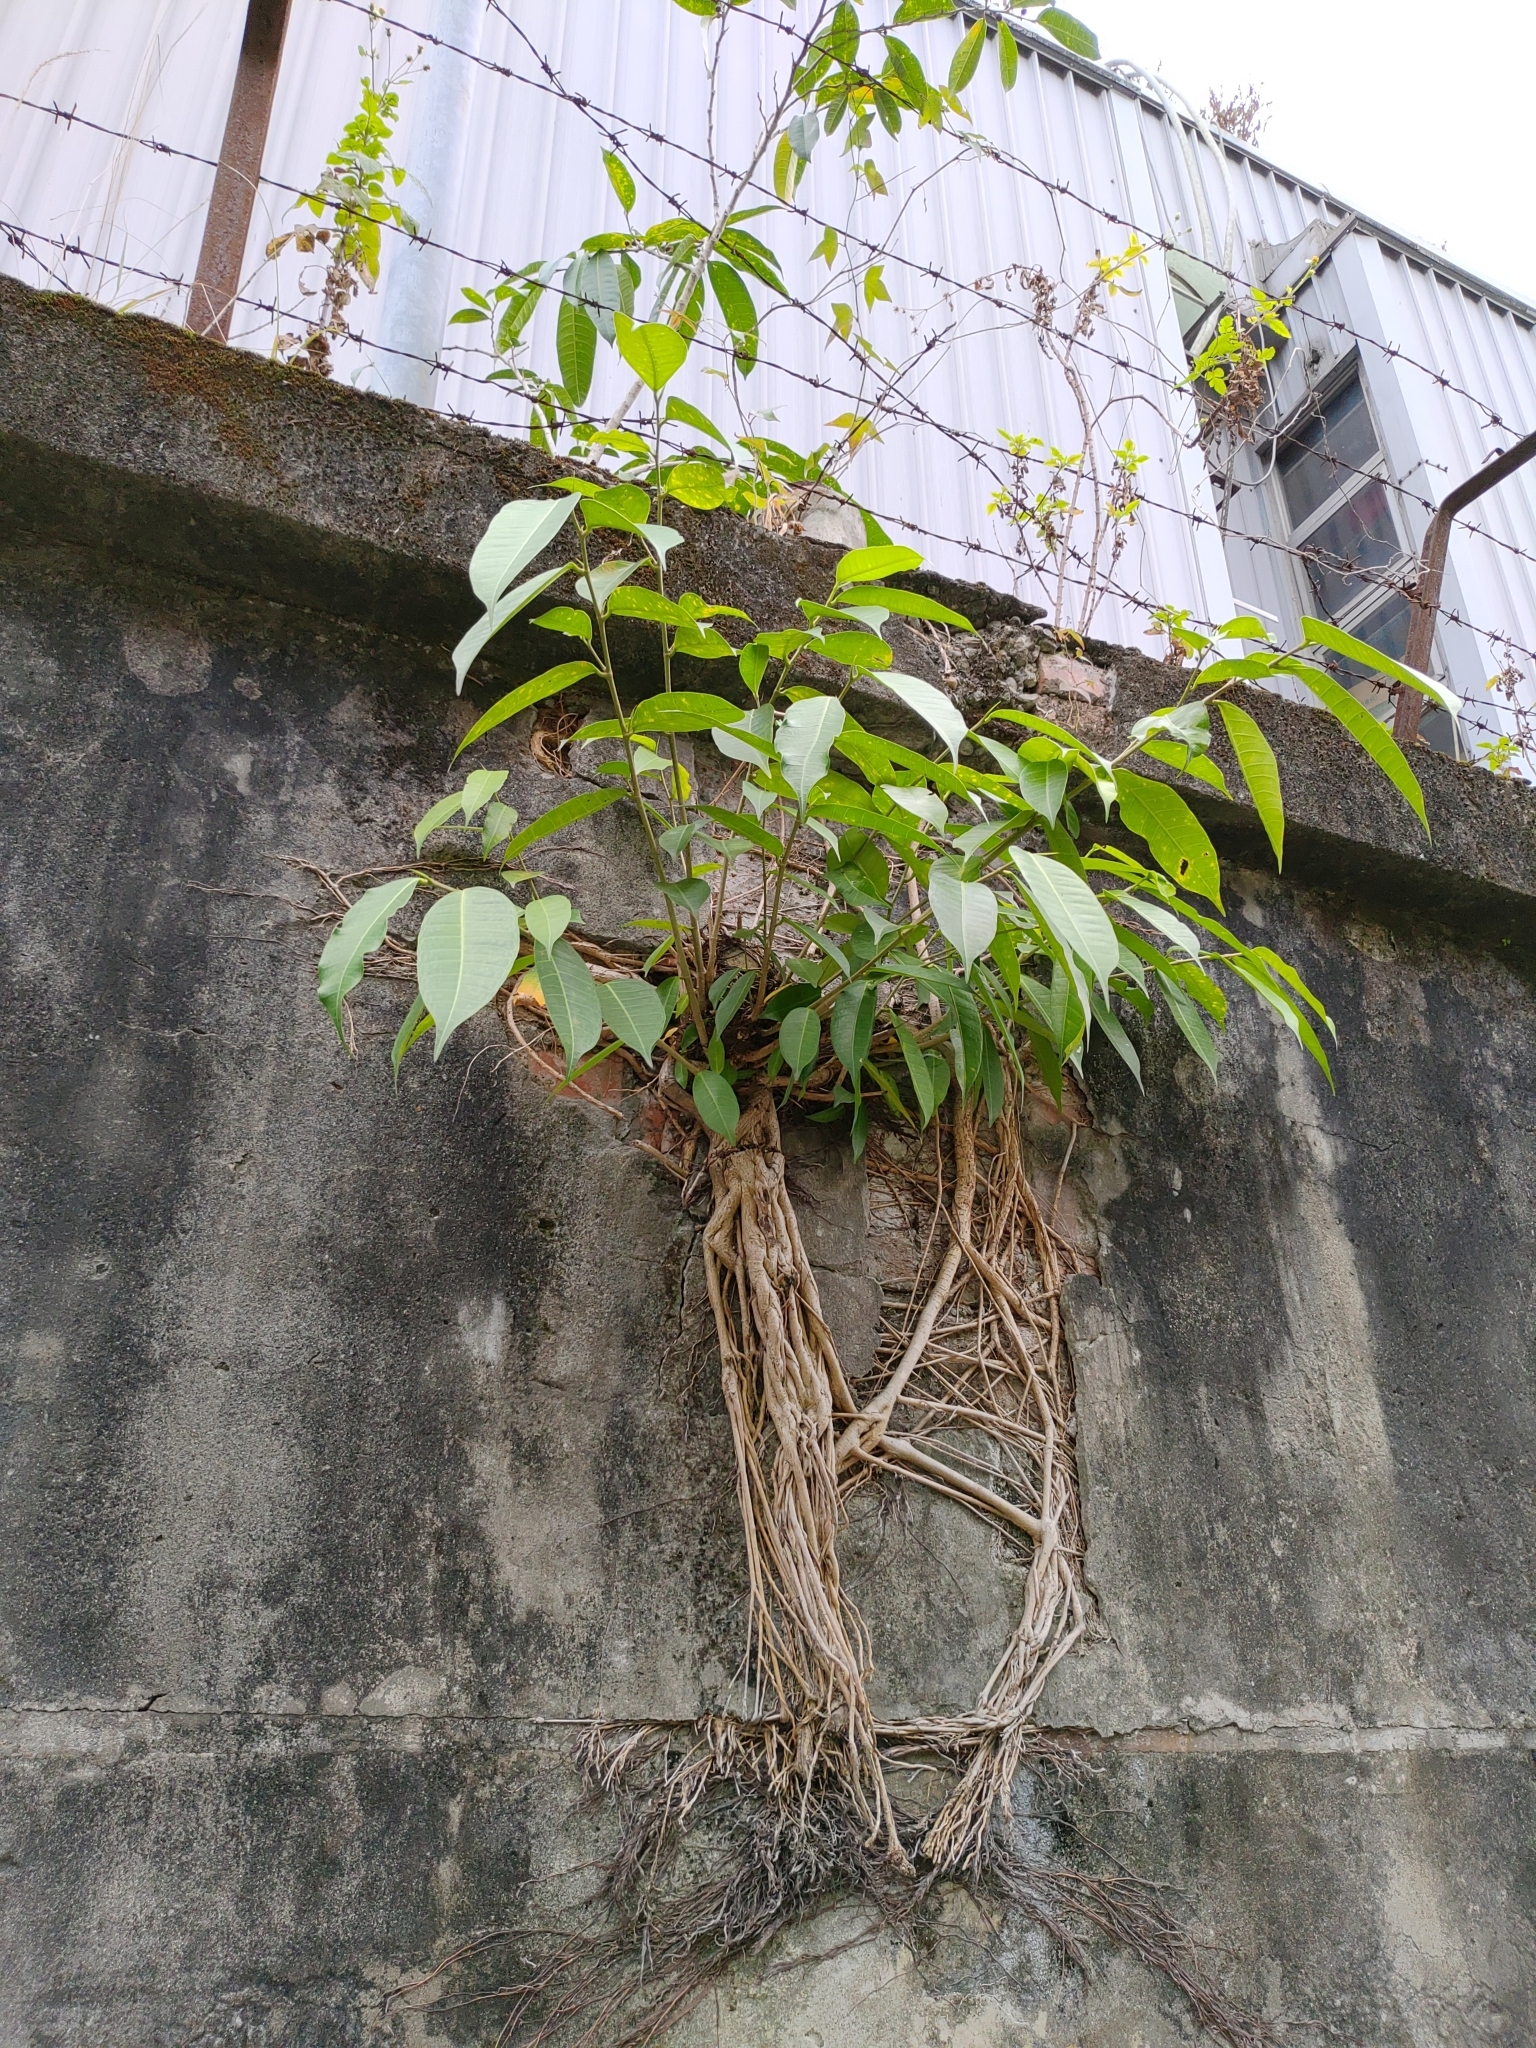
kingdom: Plantae
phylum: Tracheophyta
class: Magnoliopsida
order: Rosales
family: Moraceae
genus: Ficus
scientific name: Ficus virgata
